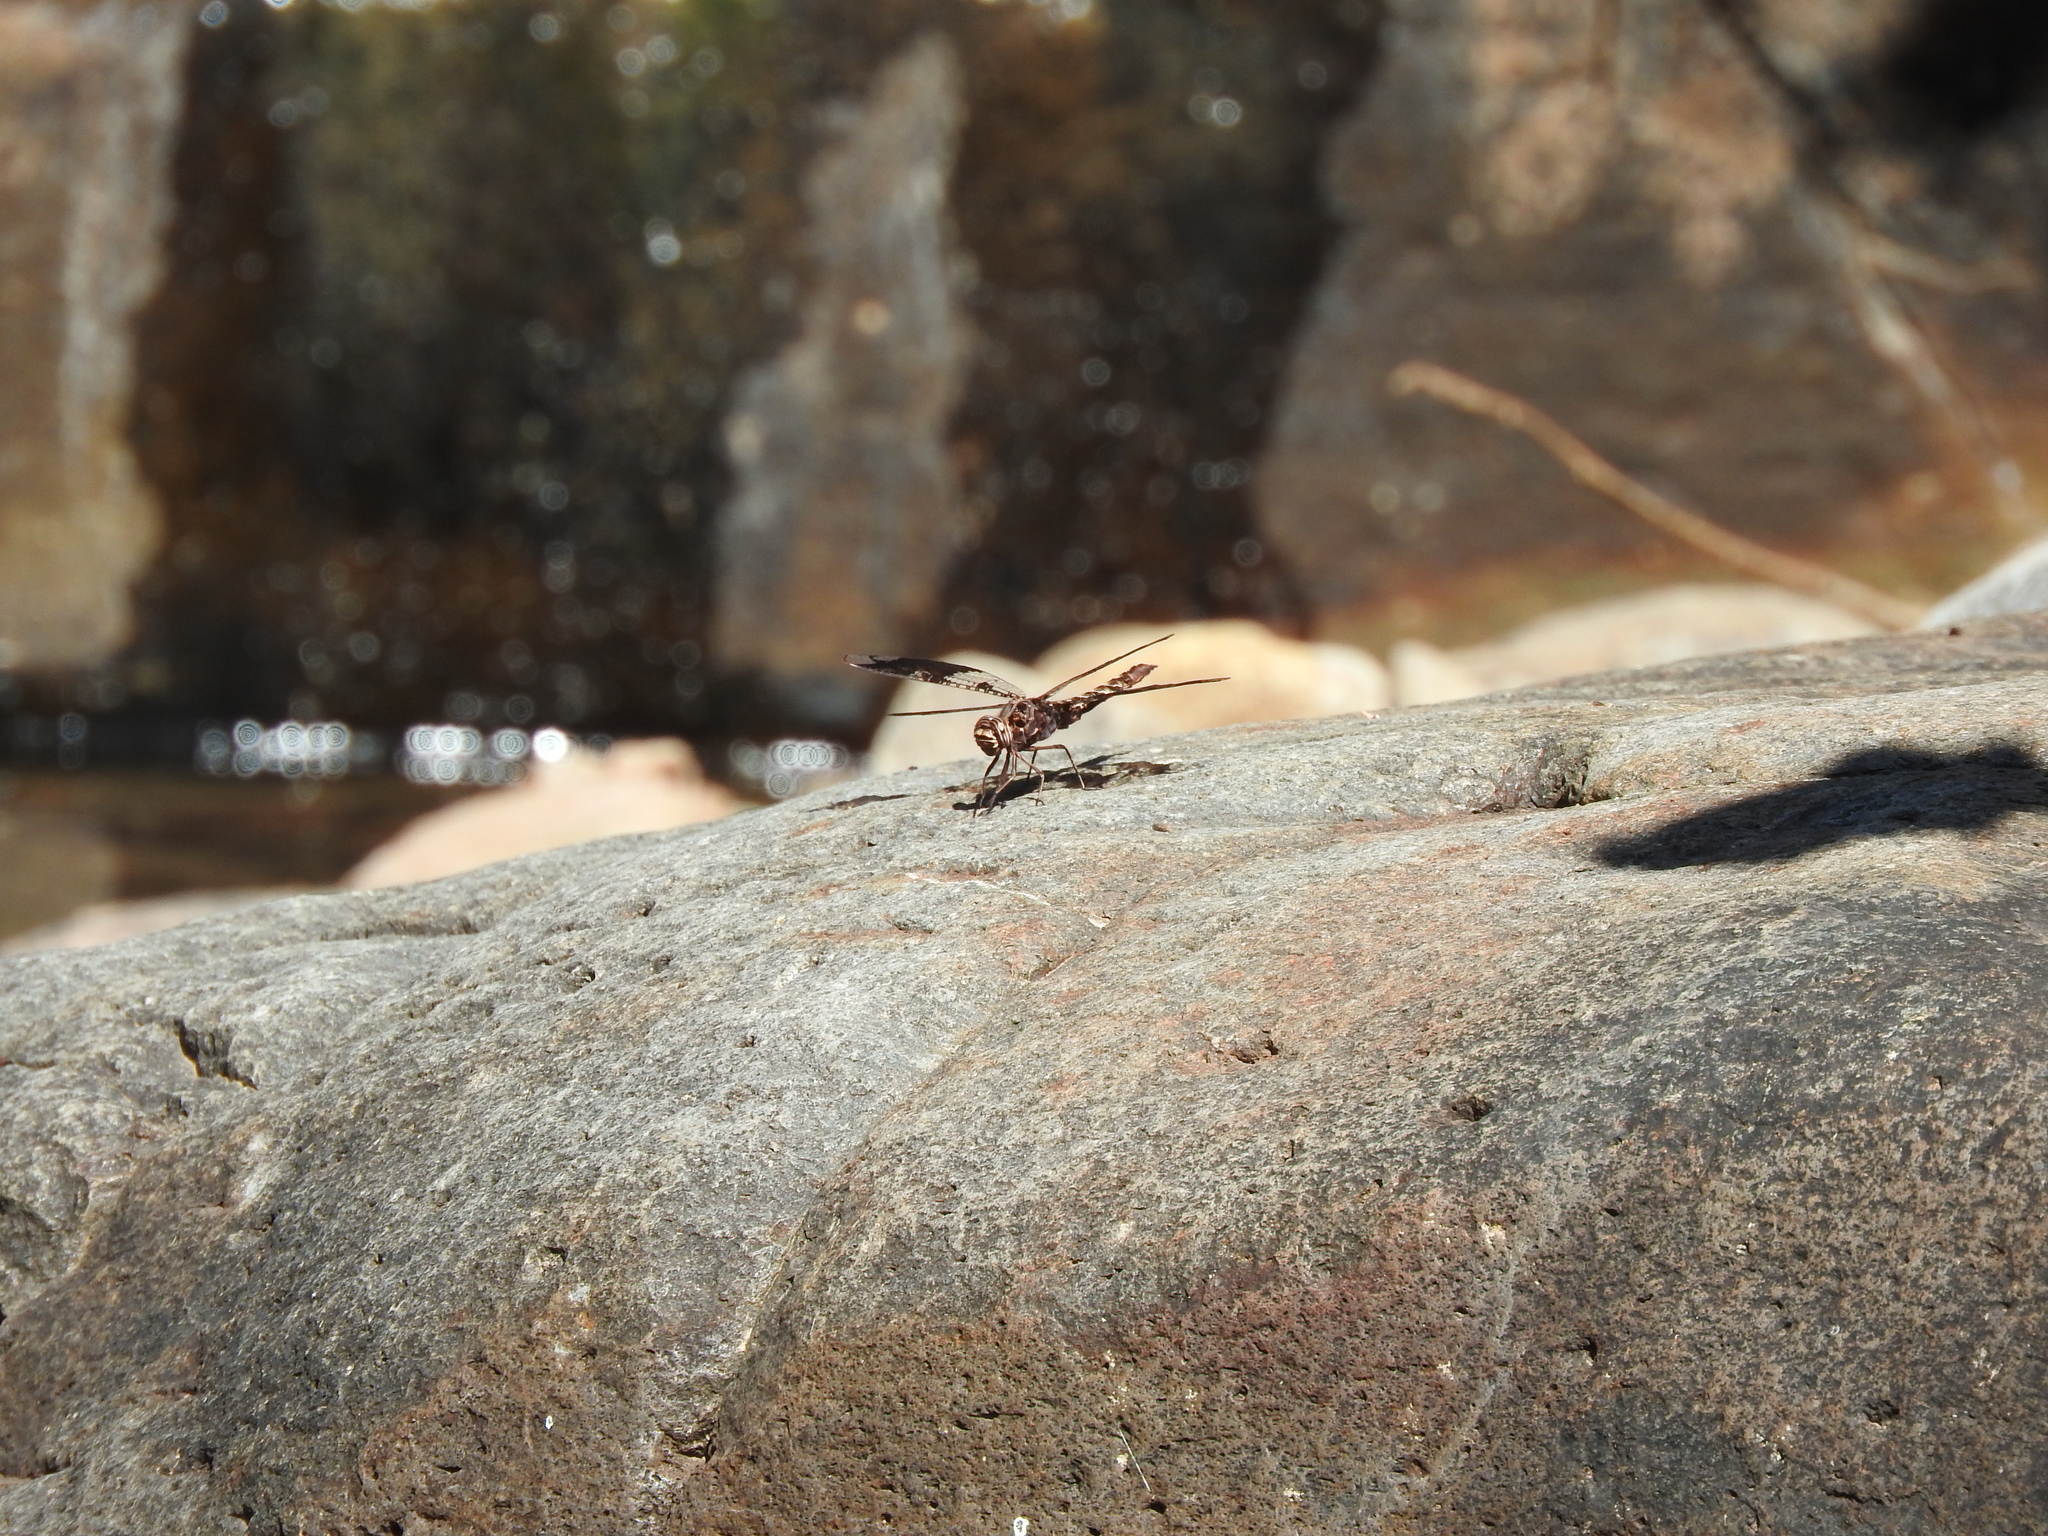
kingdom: Animalia
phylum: Arthropoda
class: Insecta
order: Odonata
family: Libellulidae
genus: Pseudoleon
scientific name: Pseudoleon superbus
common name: Filigree skimmer
